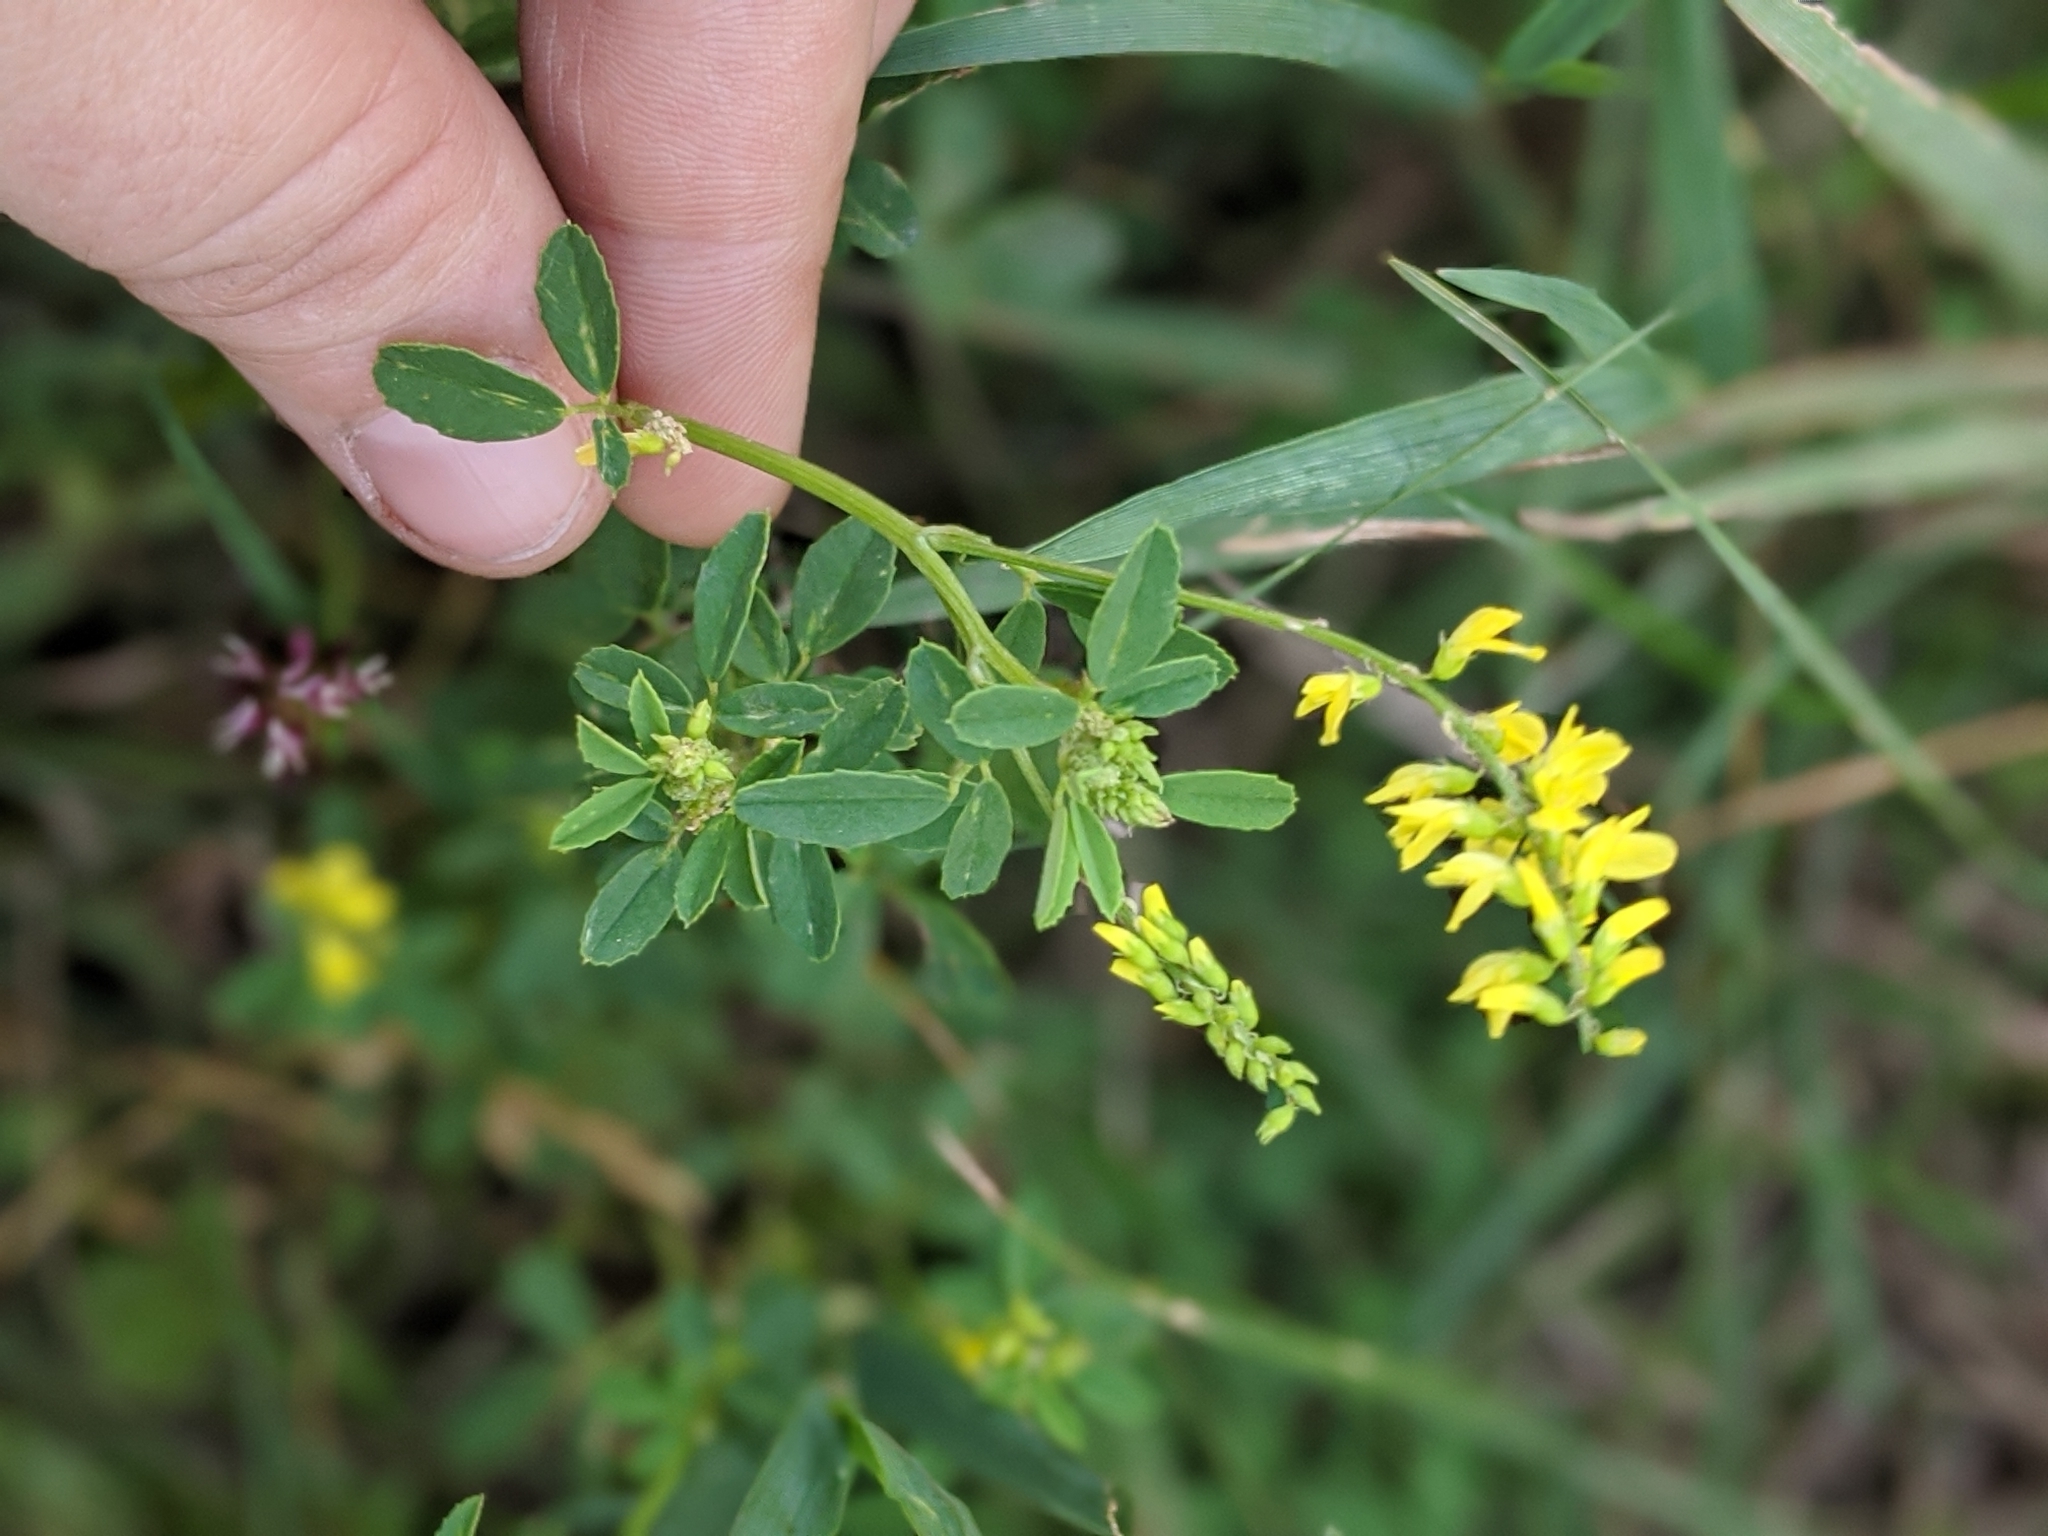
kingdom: Plantae
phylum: Tracheophyta
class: Magnoliopsida
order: Fabales
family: Fabaceae
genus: Melilotus
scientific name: Melilotus officinalis
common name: Sweetclover
